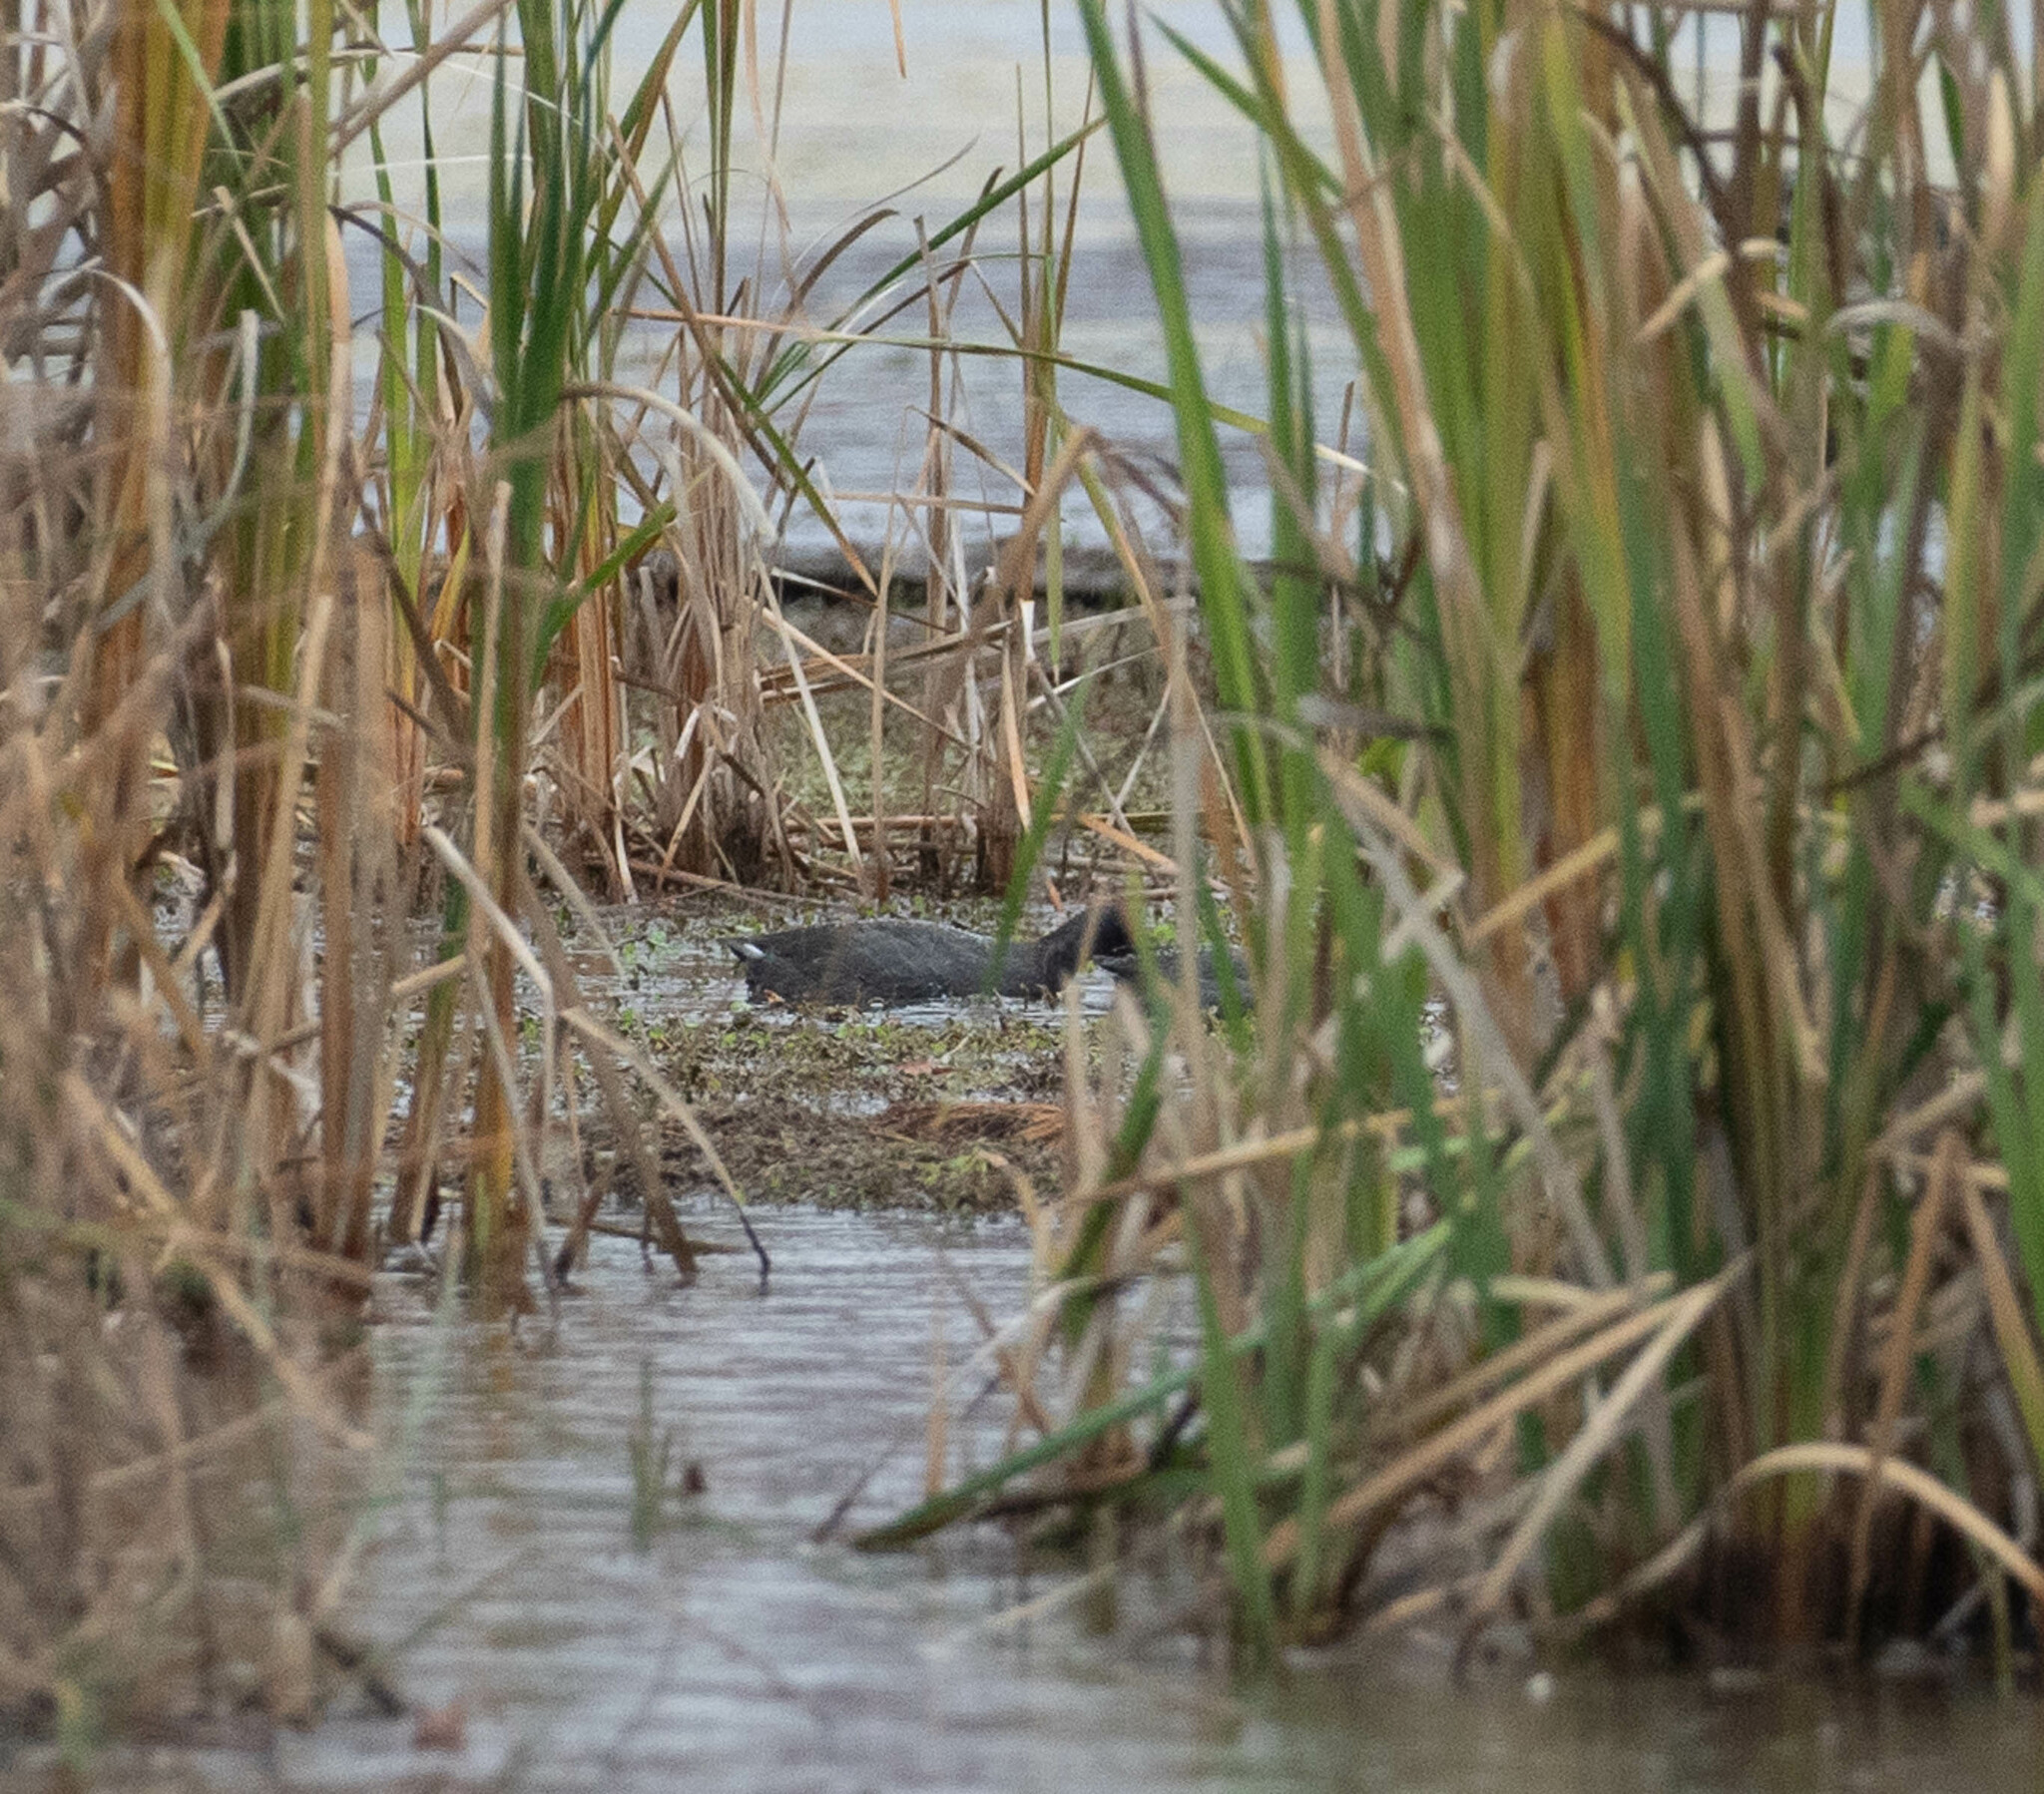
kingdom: Animalia
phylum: Chordata
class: Aves
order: Gruiformes
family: Rallidae
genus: Fulica
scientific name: Fulica americana
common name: American coot
